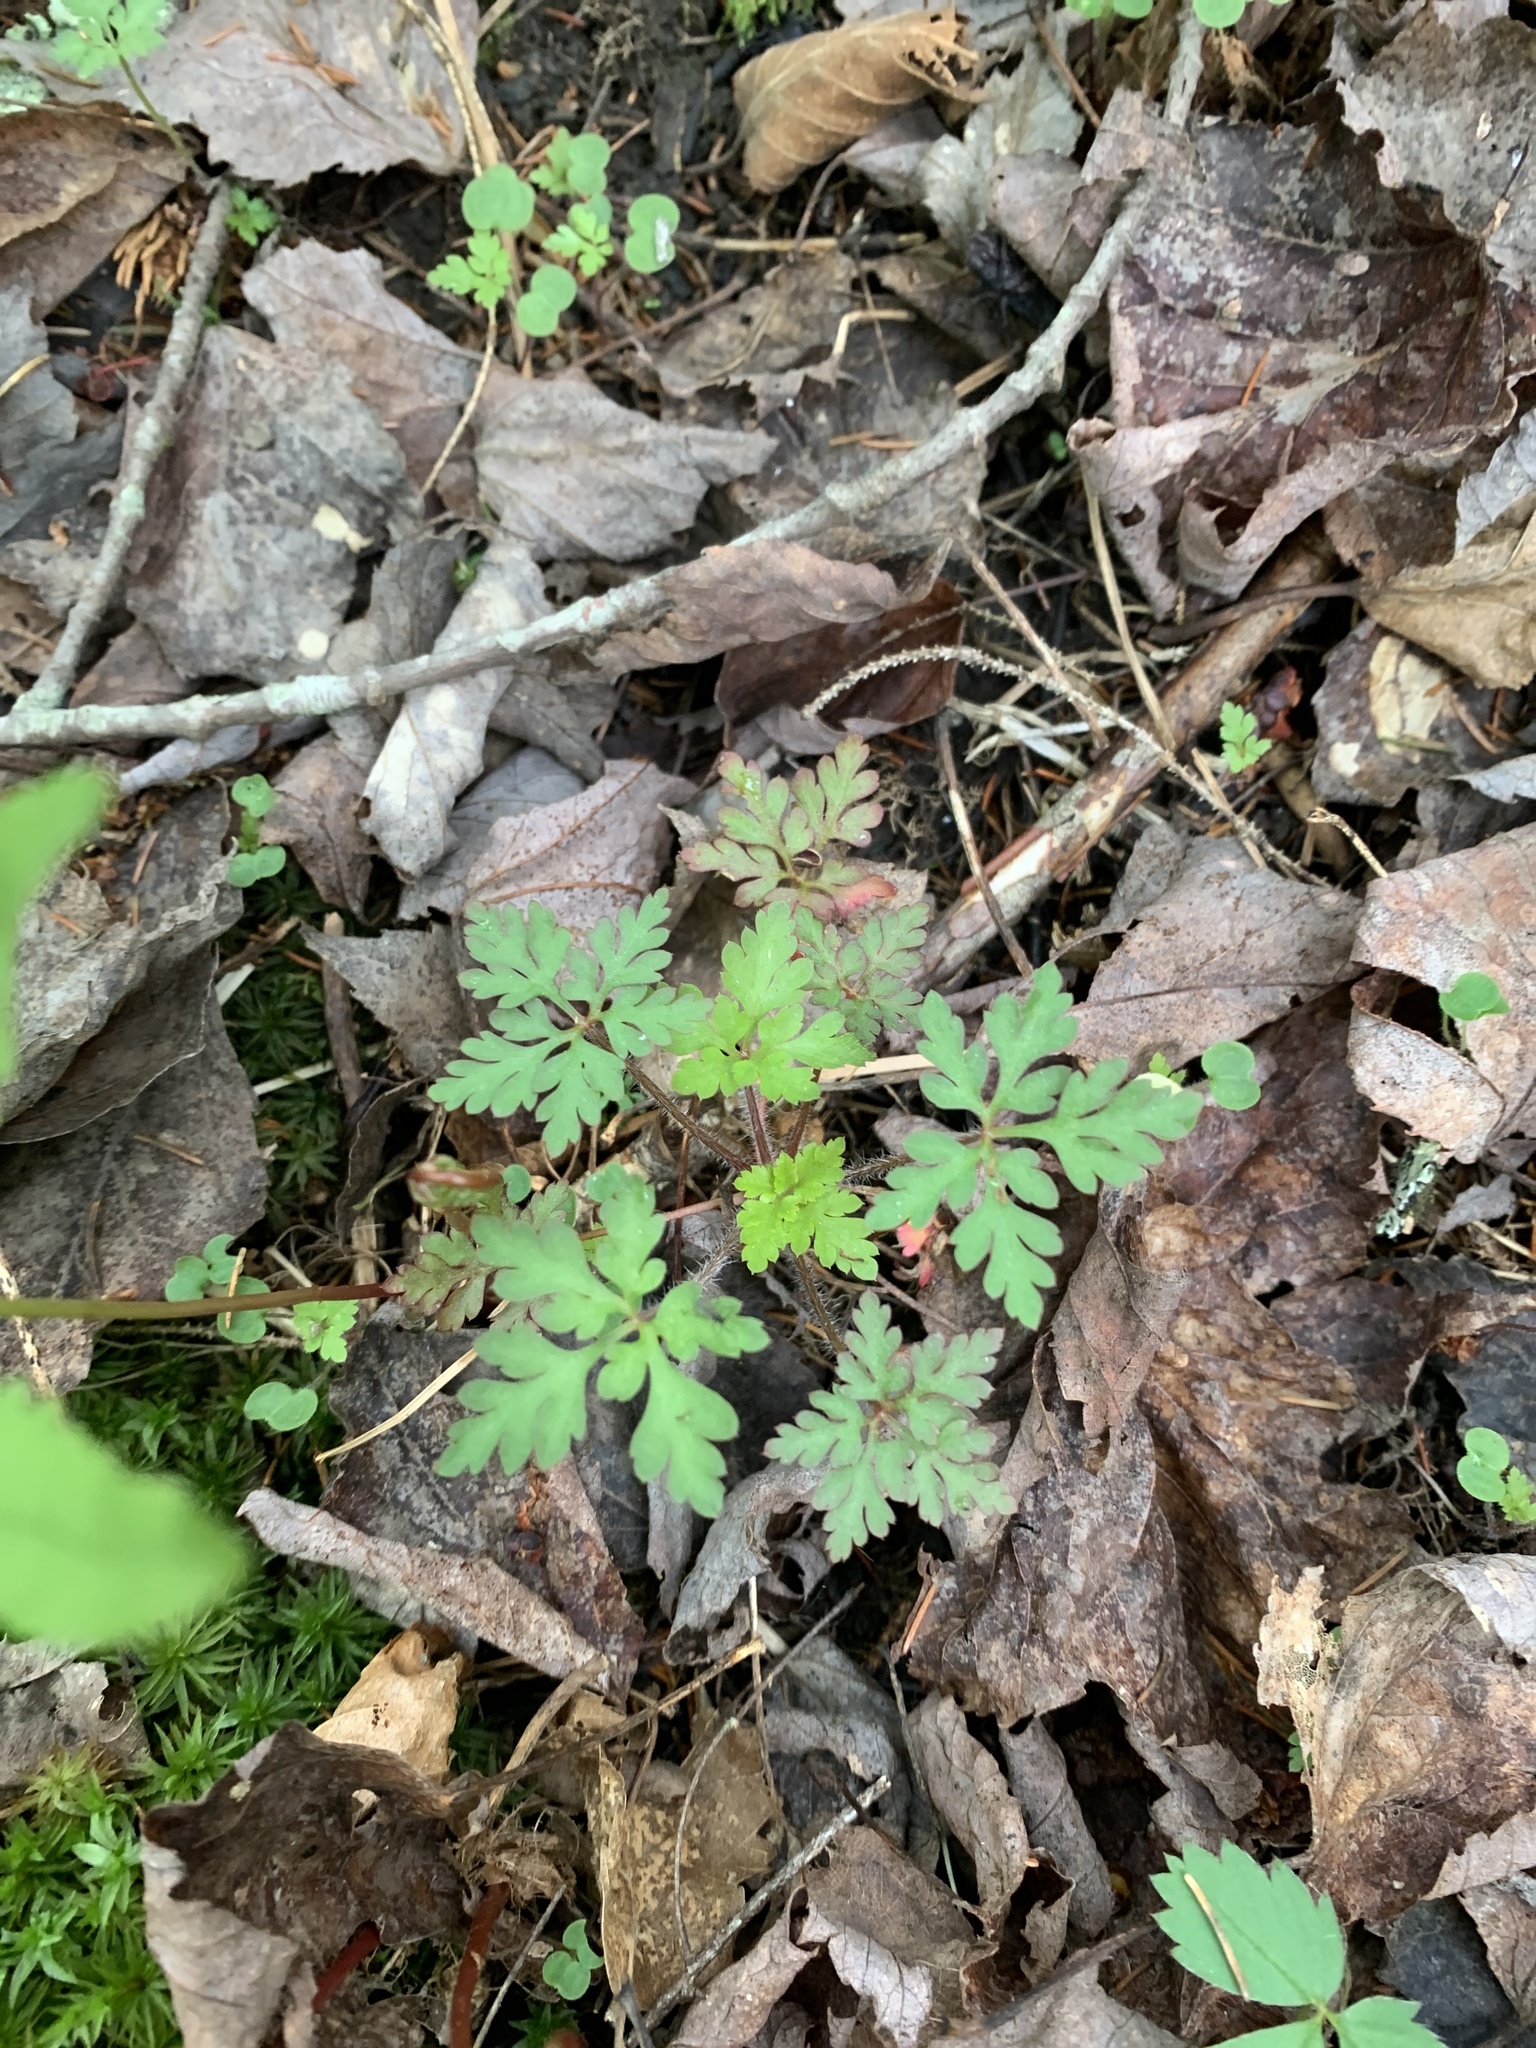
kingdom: Plantae
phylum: Tracheophyta
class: Magnoliopsida
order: Geraniales
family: Geraniaceae
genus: Geranium
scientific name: Geranium robertianum
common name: Herb-robert
